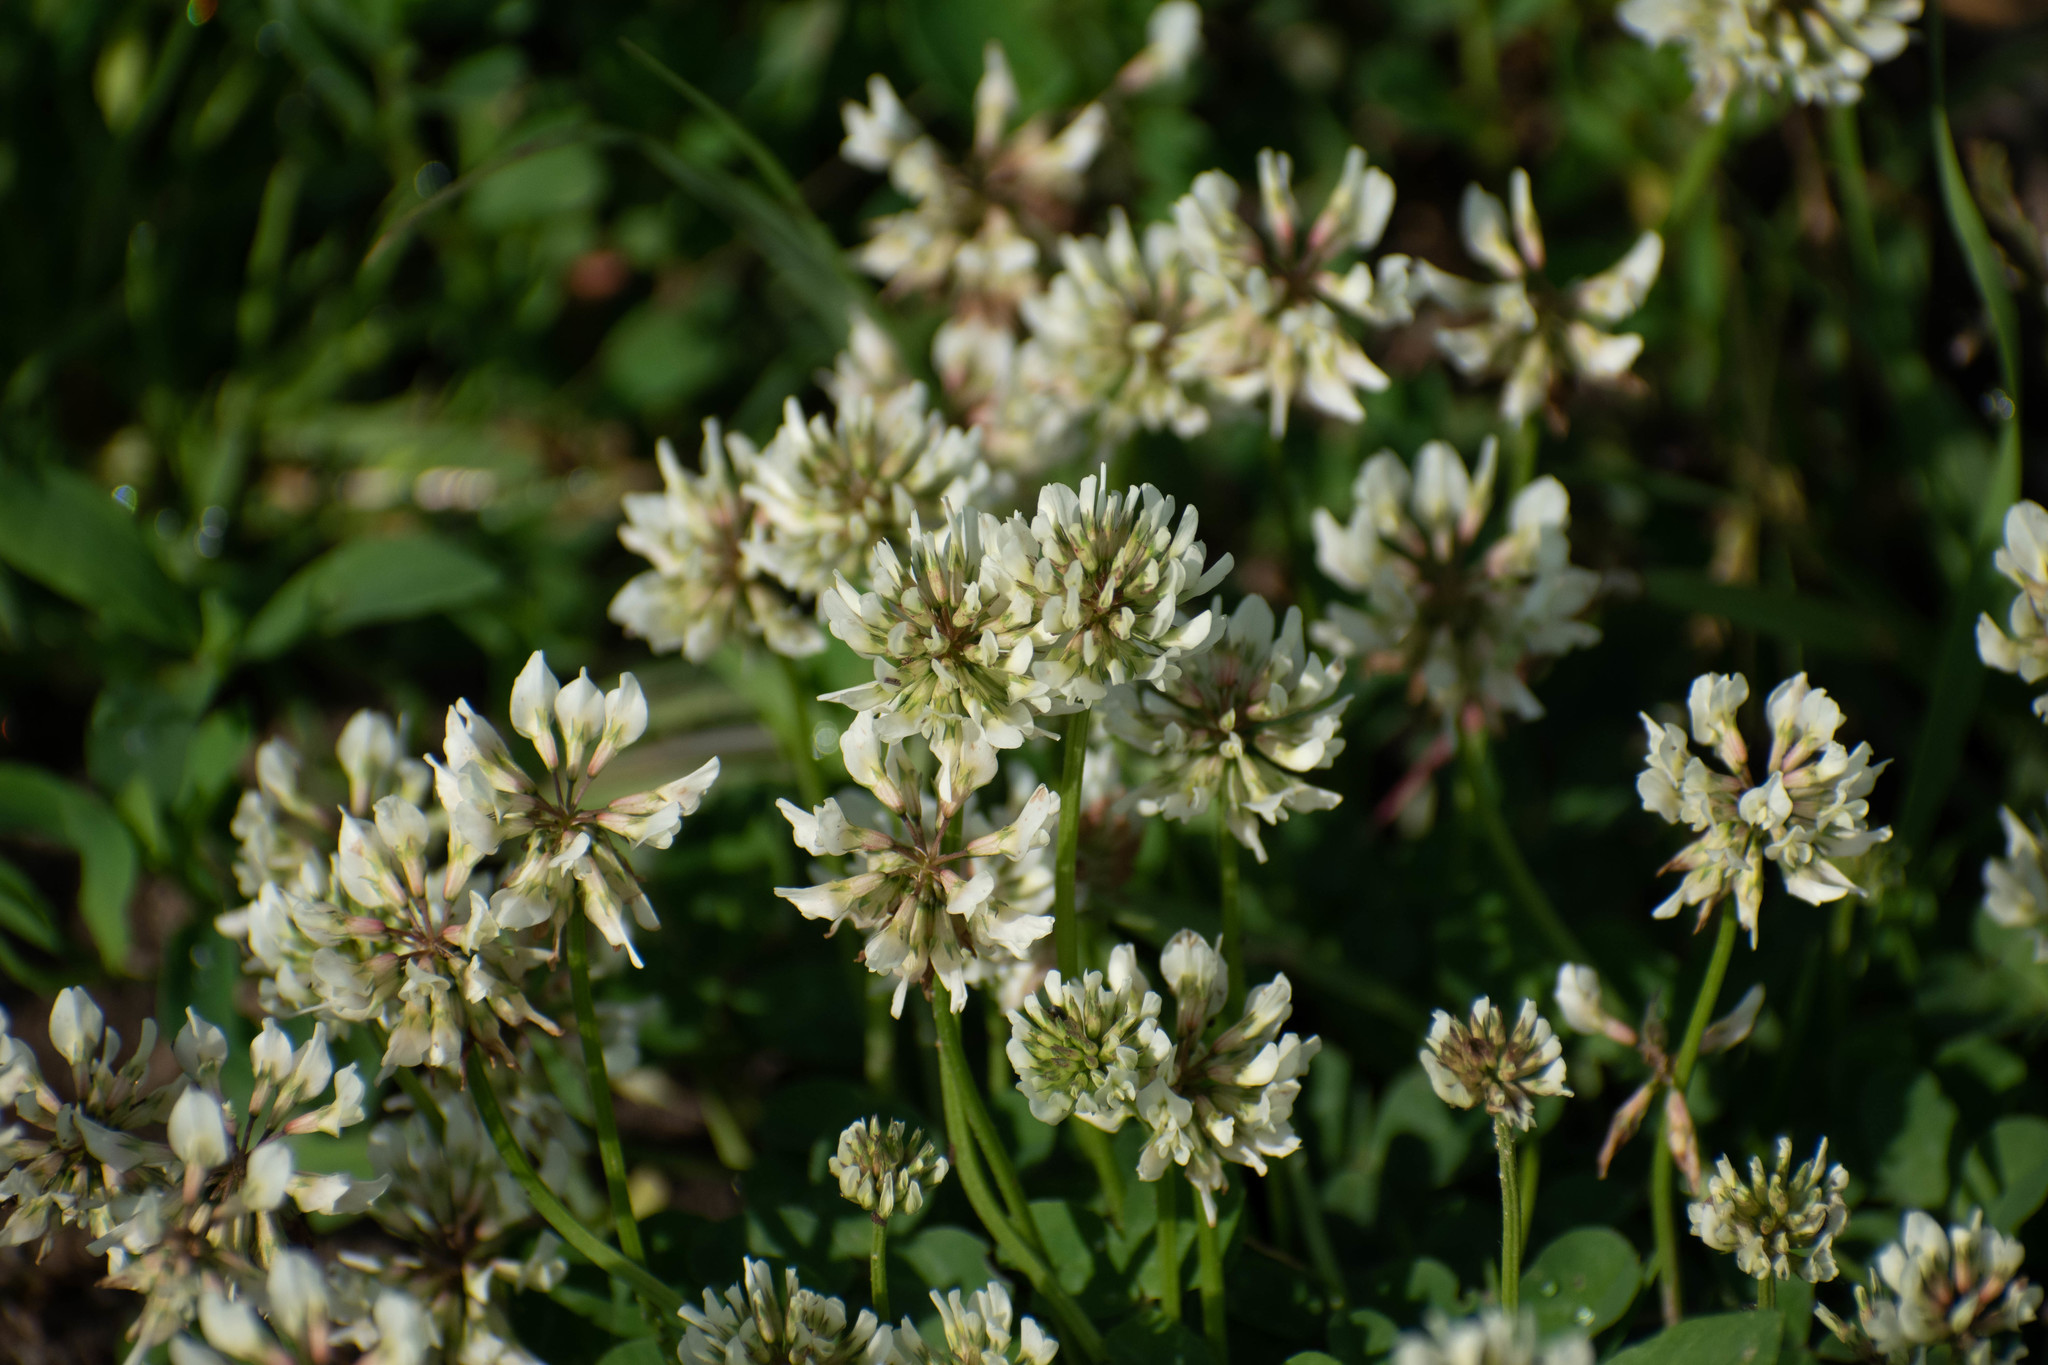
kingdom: Plantae
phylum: Tracheophyta
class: Magnoliopsida
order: Fabales
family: Fabaceae
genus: Trifolium
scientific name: Trifolium repens
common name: White clover
